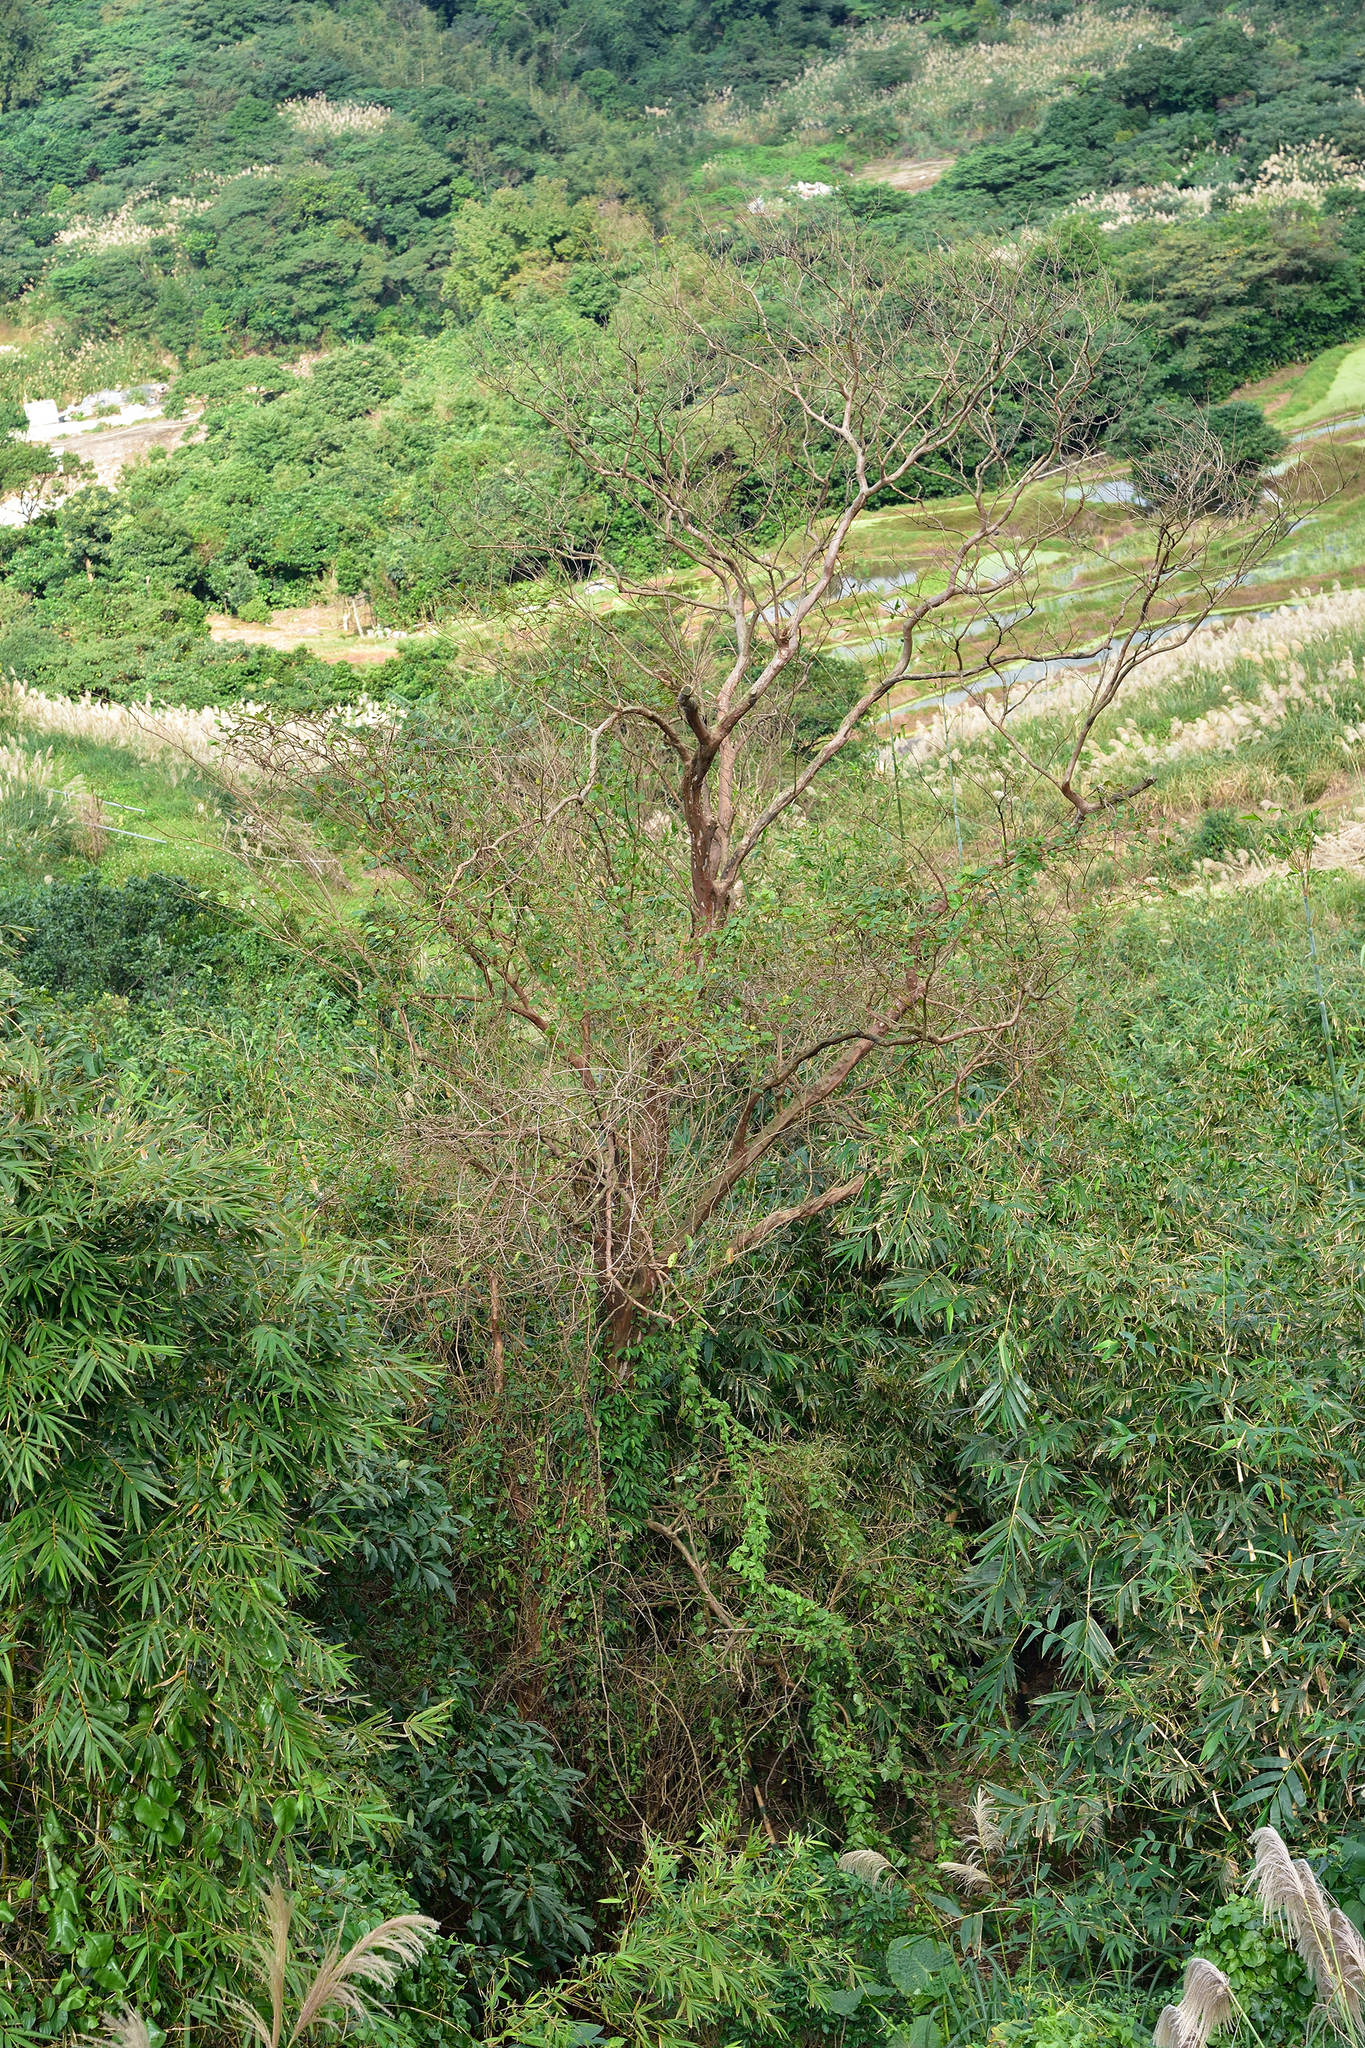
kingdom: Plantae
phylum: Tracheophyta
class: Magnoliopsida
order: Myrtales
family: Lythraceae
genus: Lagerstroemia
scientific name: Lagerstroemia subcostata
